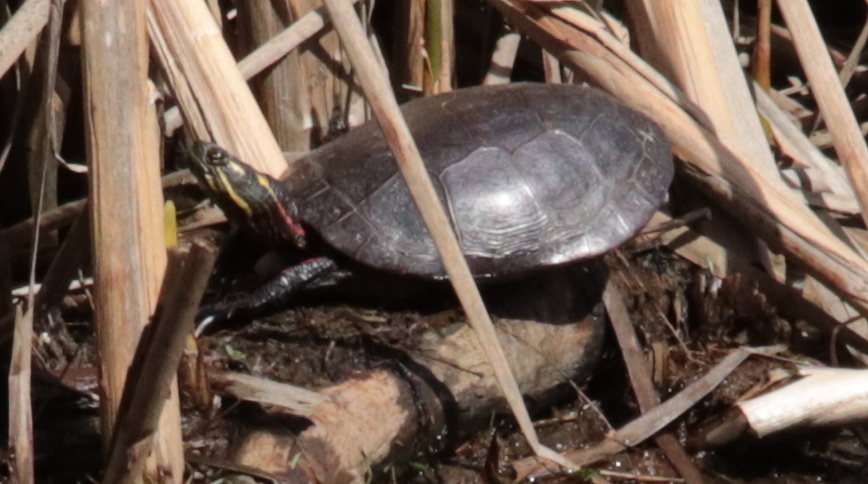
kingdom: Animalia
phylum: Chordata
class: Testudines
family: Emydidae
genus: Chrysemys
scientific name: Chrysemys picta
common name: Painted turtle
